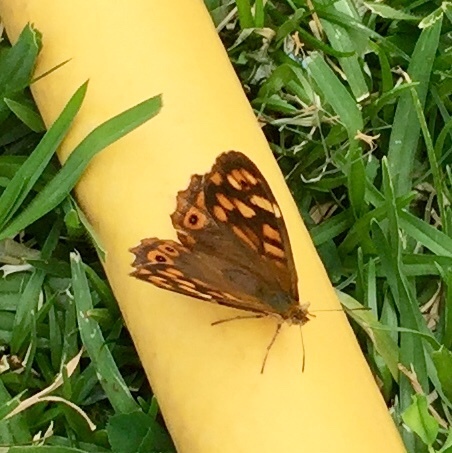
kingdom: Animalia
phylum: Arthropoda
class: Insecta
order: Lepidoptera
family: Nymphalidae
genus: Pararge
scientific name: Pararge aegeria
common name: Speckled wood
